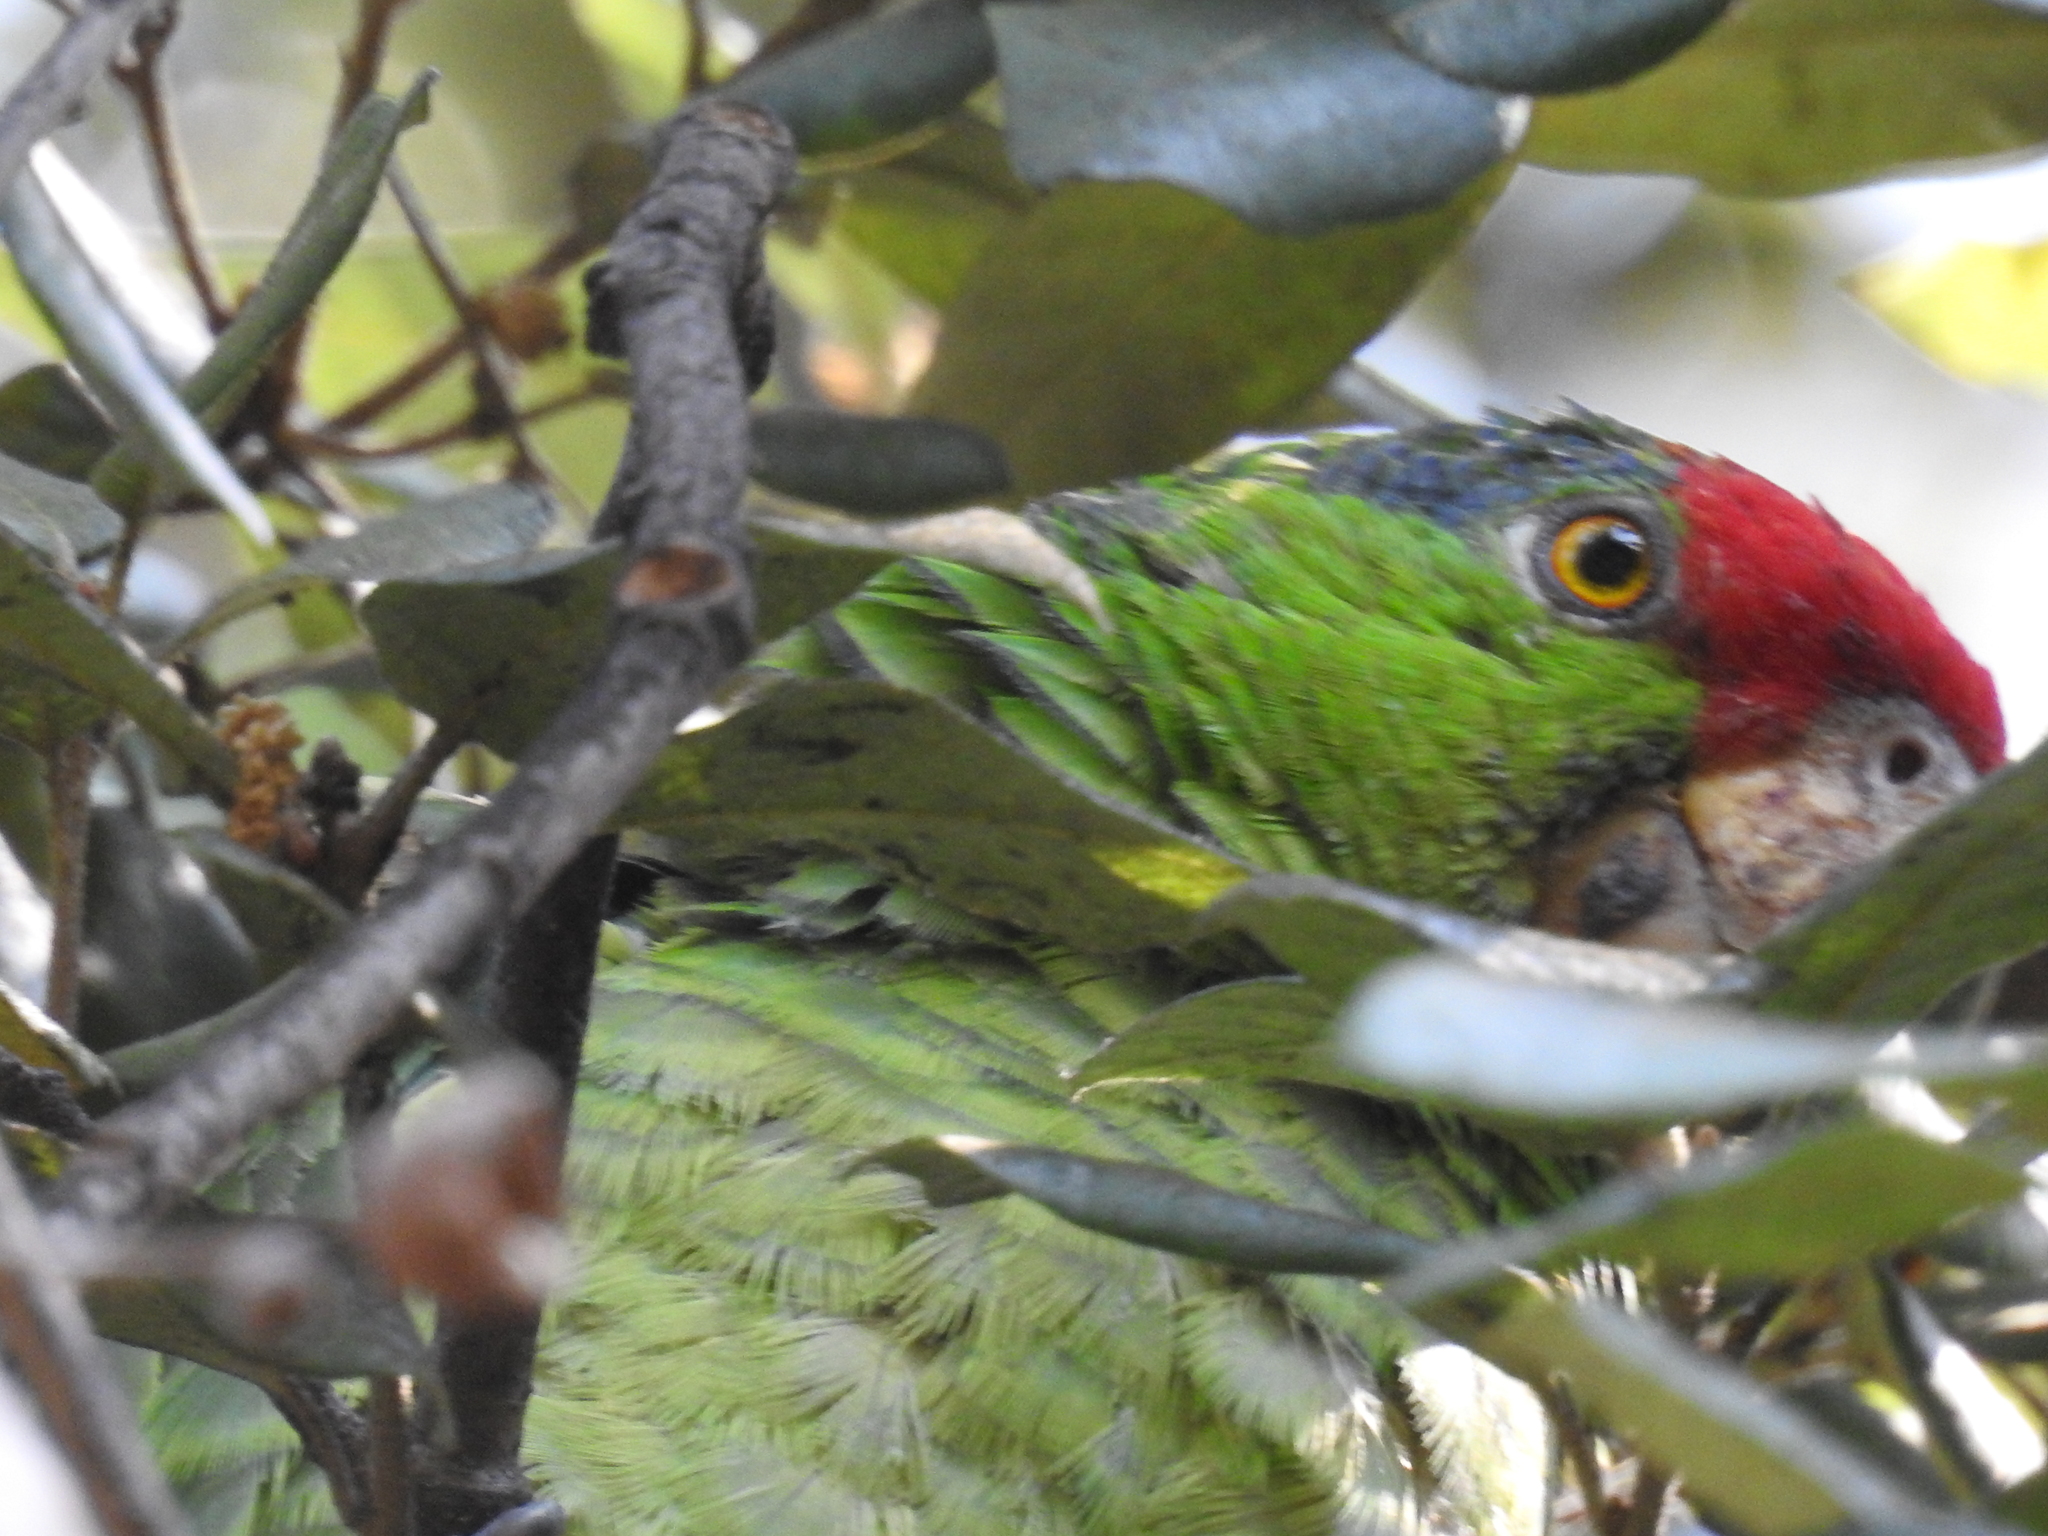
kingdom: Animalia
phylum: Chordata
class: Aves
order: Psittaciformes
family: Psittacidae
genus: Amazona
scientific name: Amazona viridigenalis
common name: Red-crowned amazon
